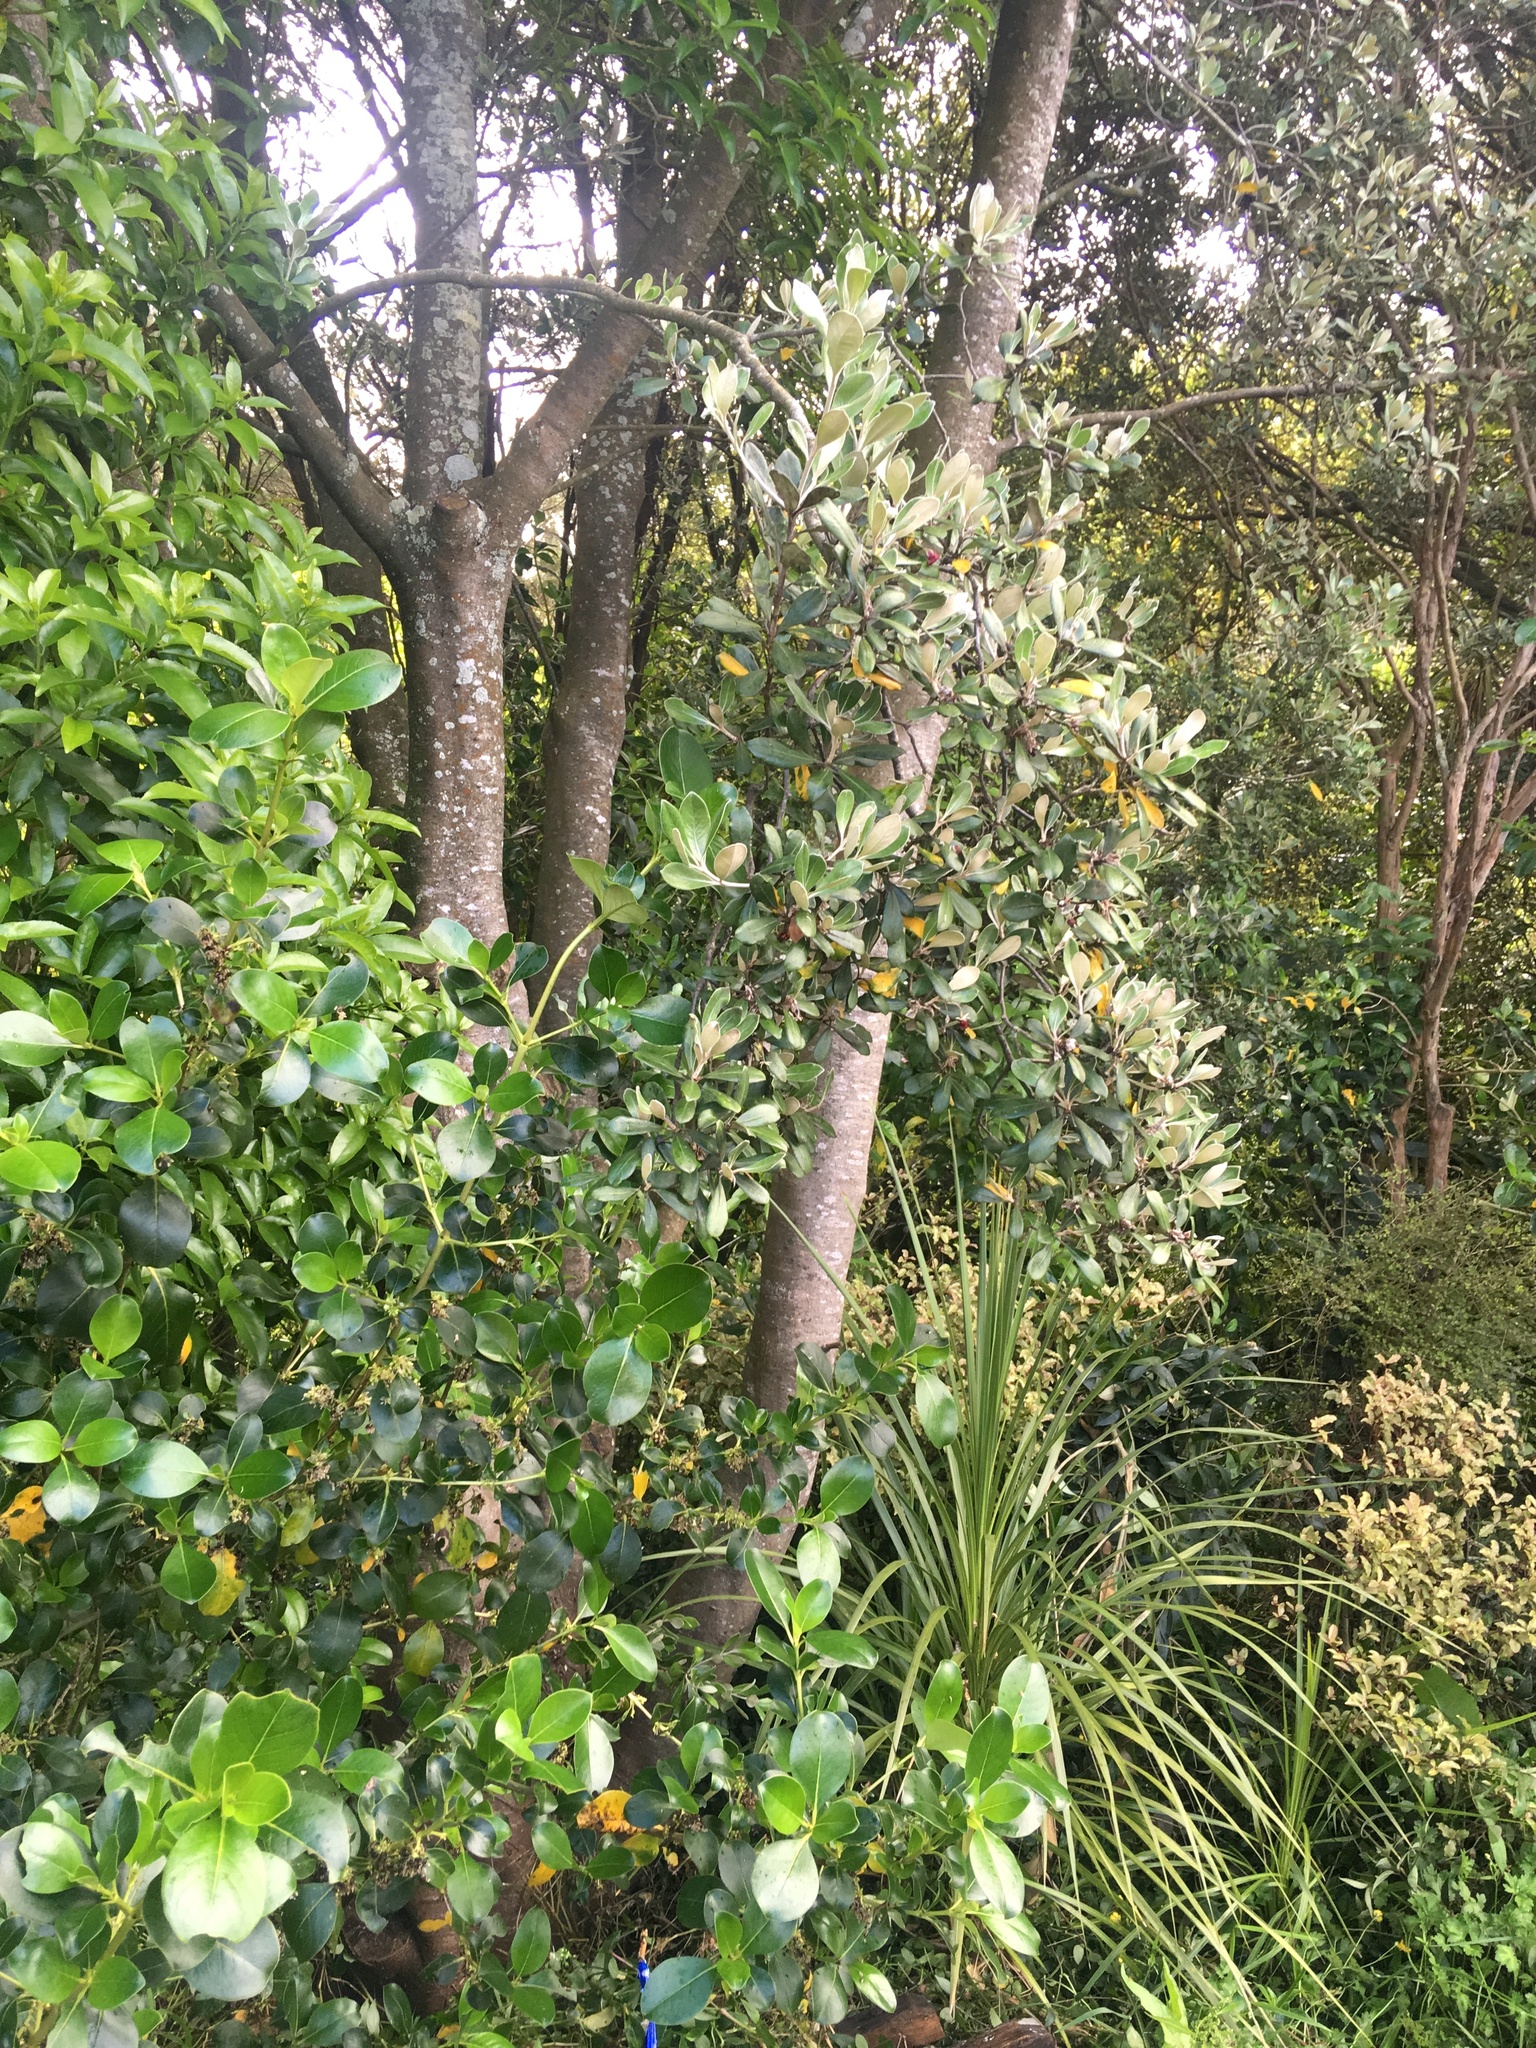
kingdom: Plantae
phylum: Tracheophyta
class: Magnoliopsida
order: Apiales
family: Pittosporaceae
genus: Pittosporum
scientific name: Pittosporum crassifolium
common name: Karo
